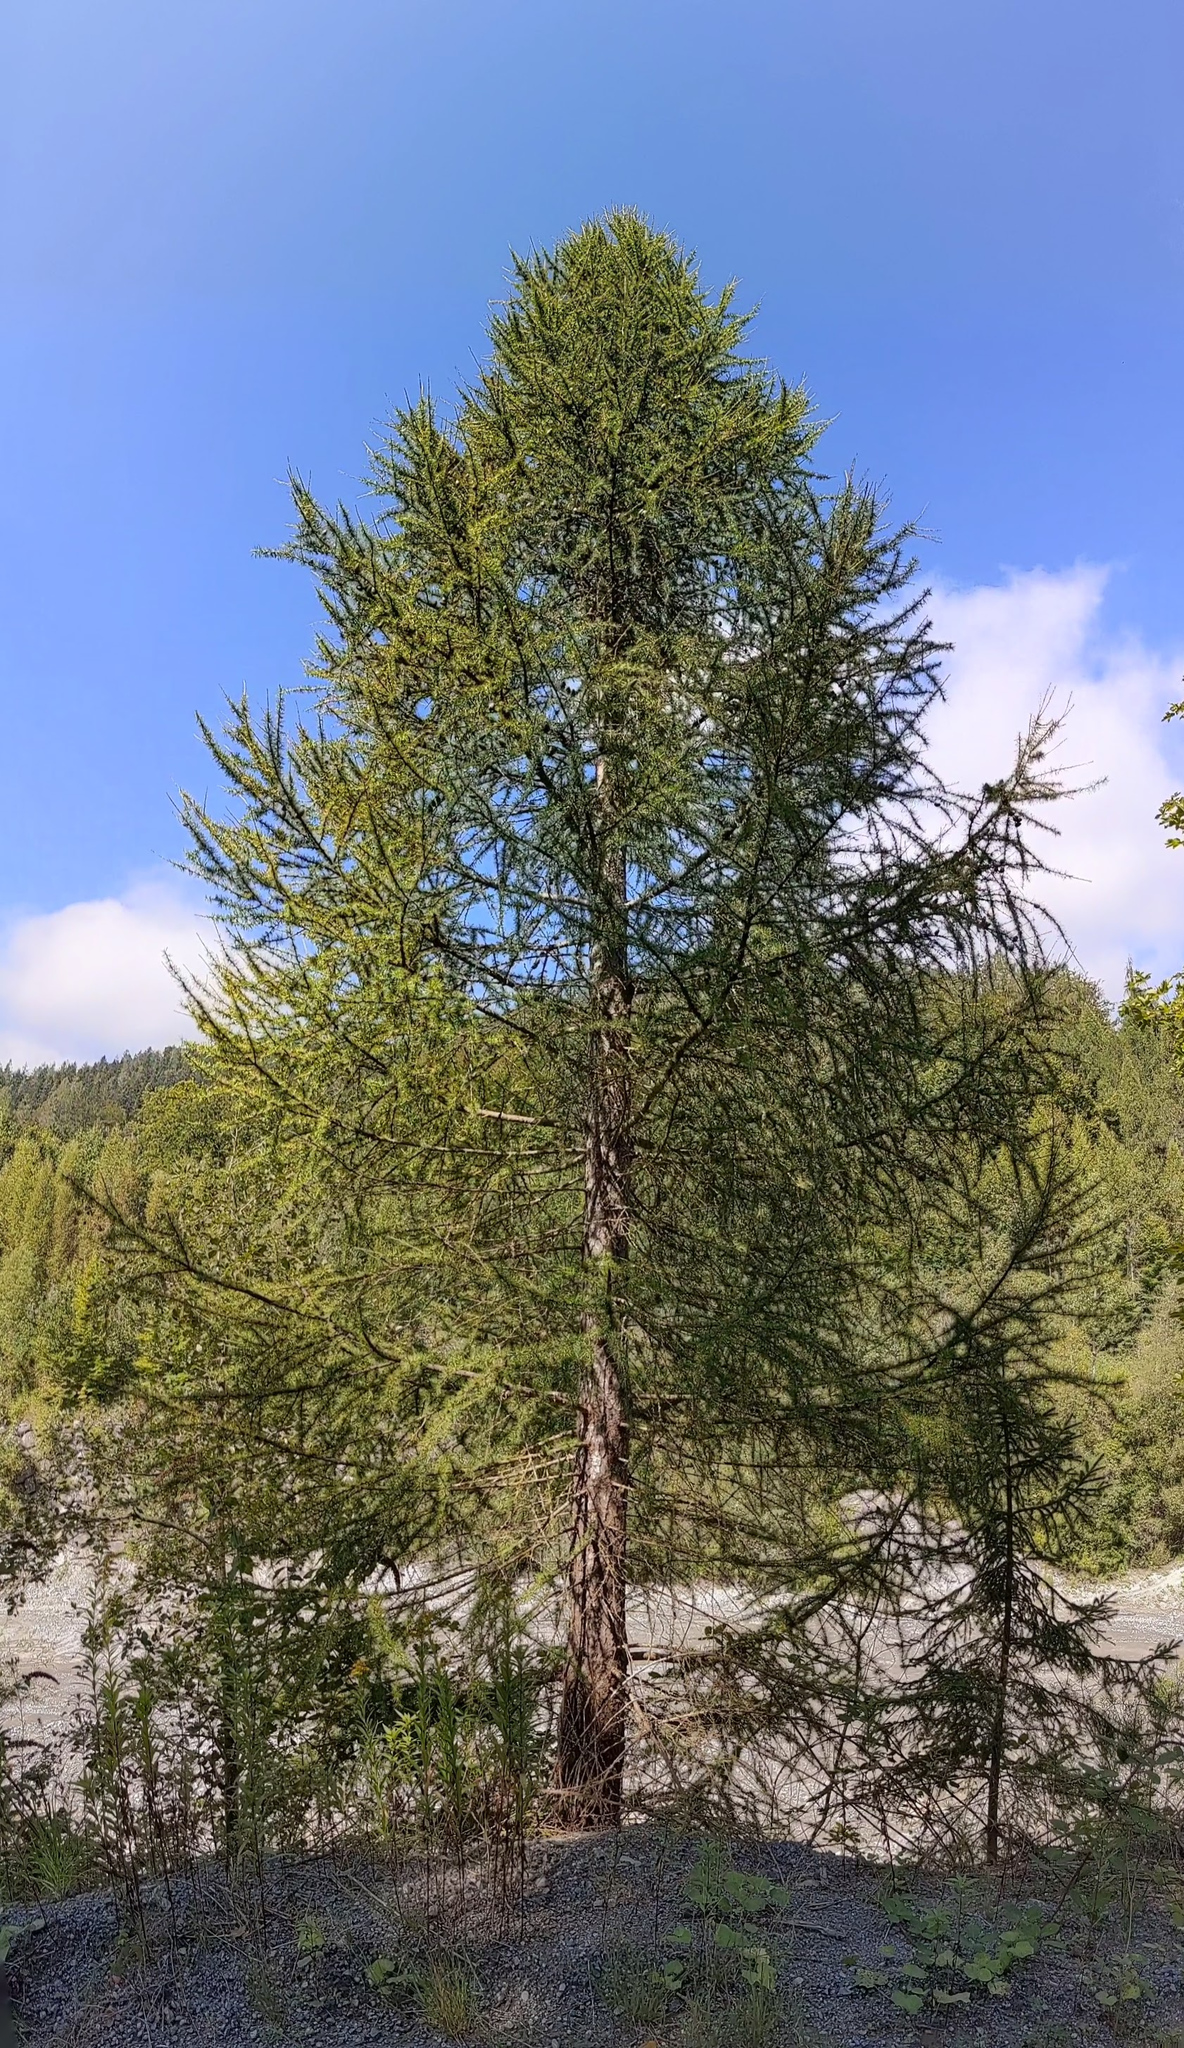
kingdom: Plantae
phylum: Tracheophyta
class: Pinopsida
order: Pinales
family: Pinaceae
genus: Larix
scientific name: Larix decidua
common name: European larch
